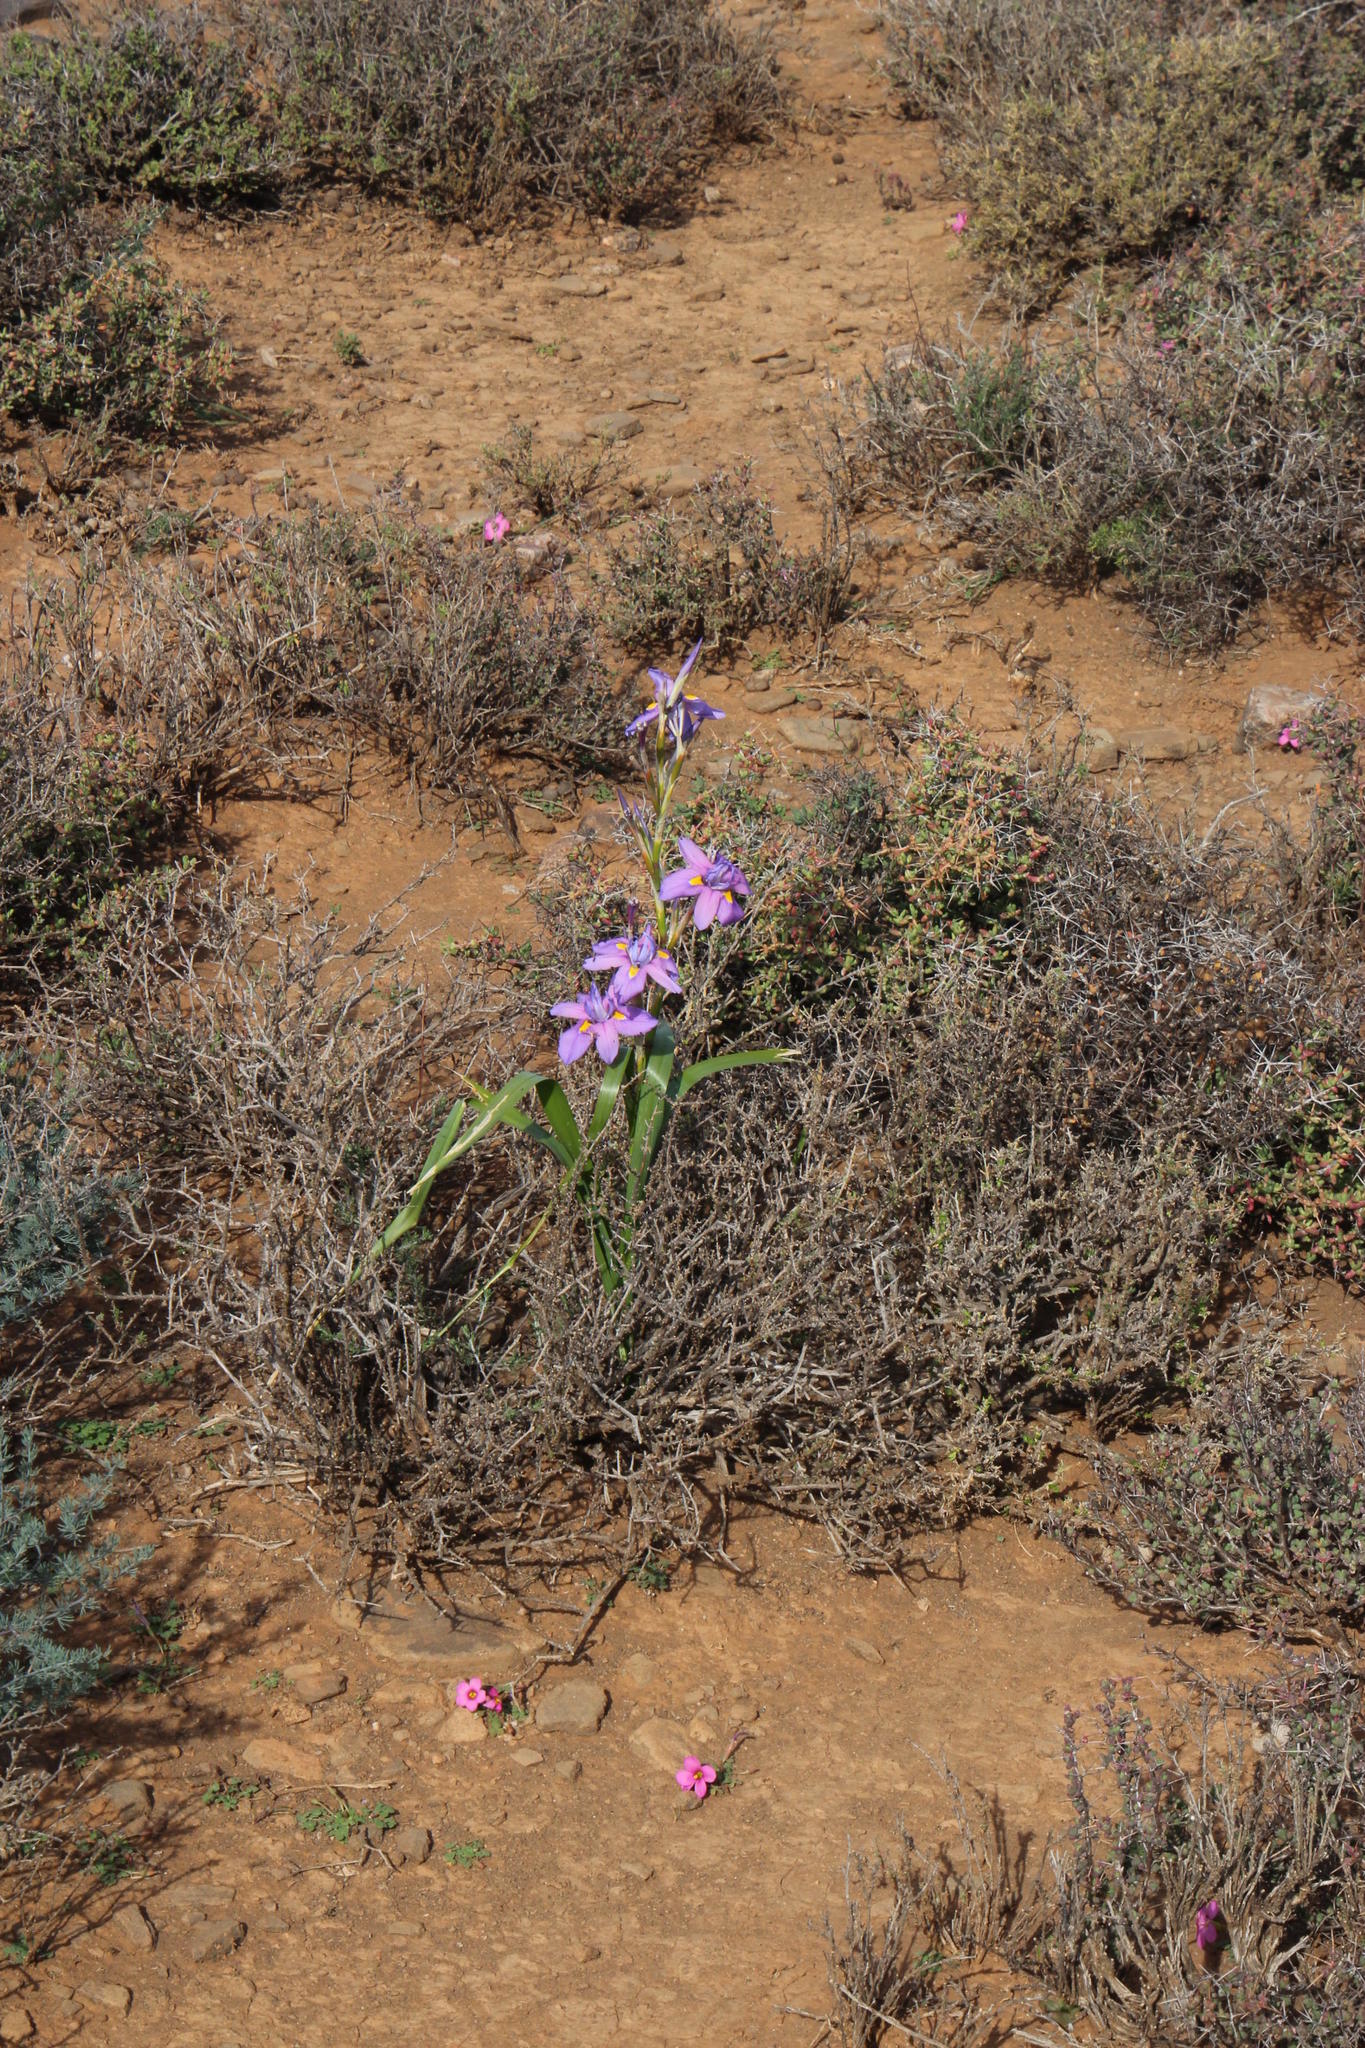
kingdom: Plantae
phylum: Tracheophyta
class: Liliopsida
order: Asparagales
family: Iridaceae
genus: Moraea
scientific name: Moraea polystachya
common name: Blue-tulip
